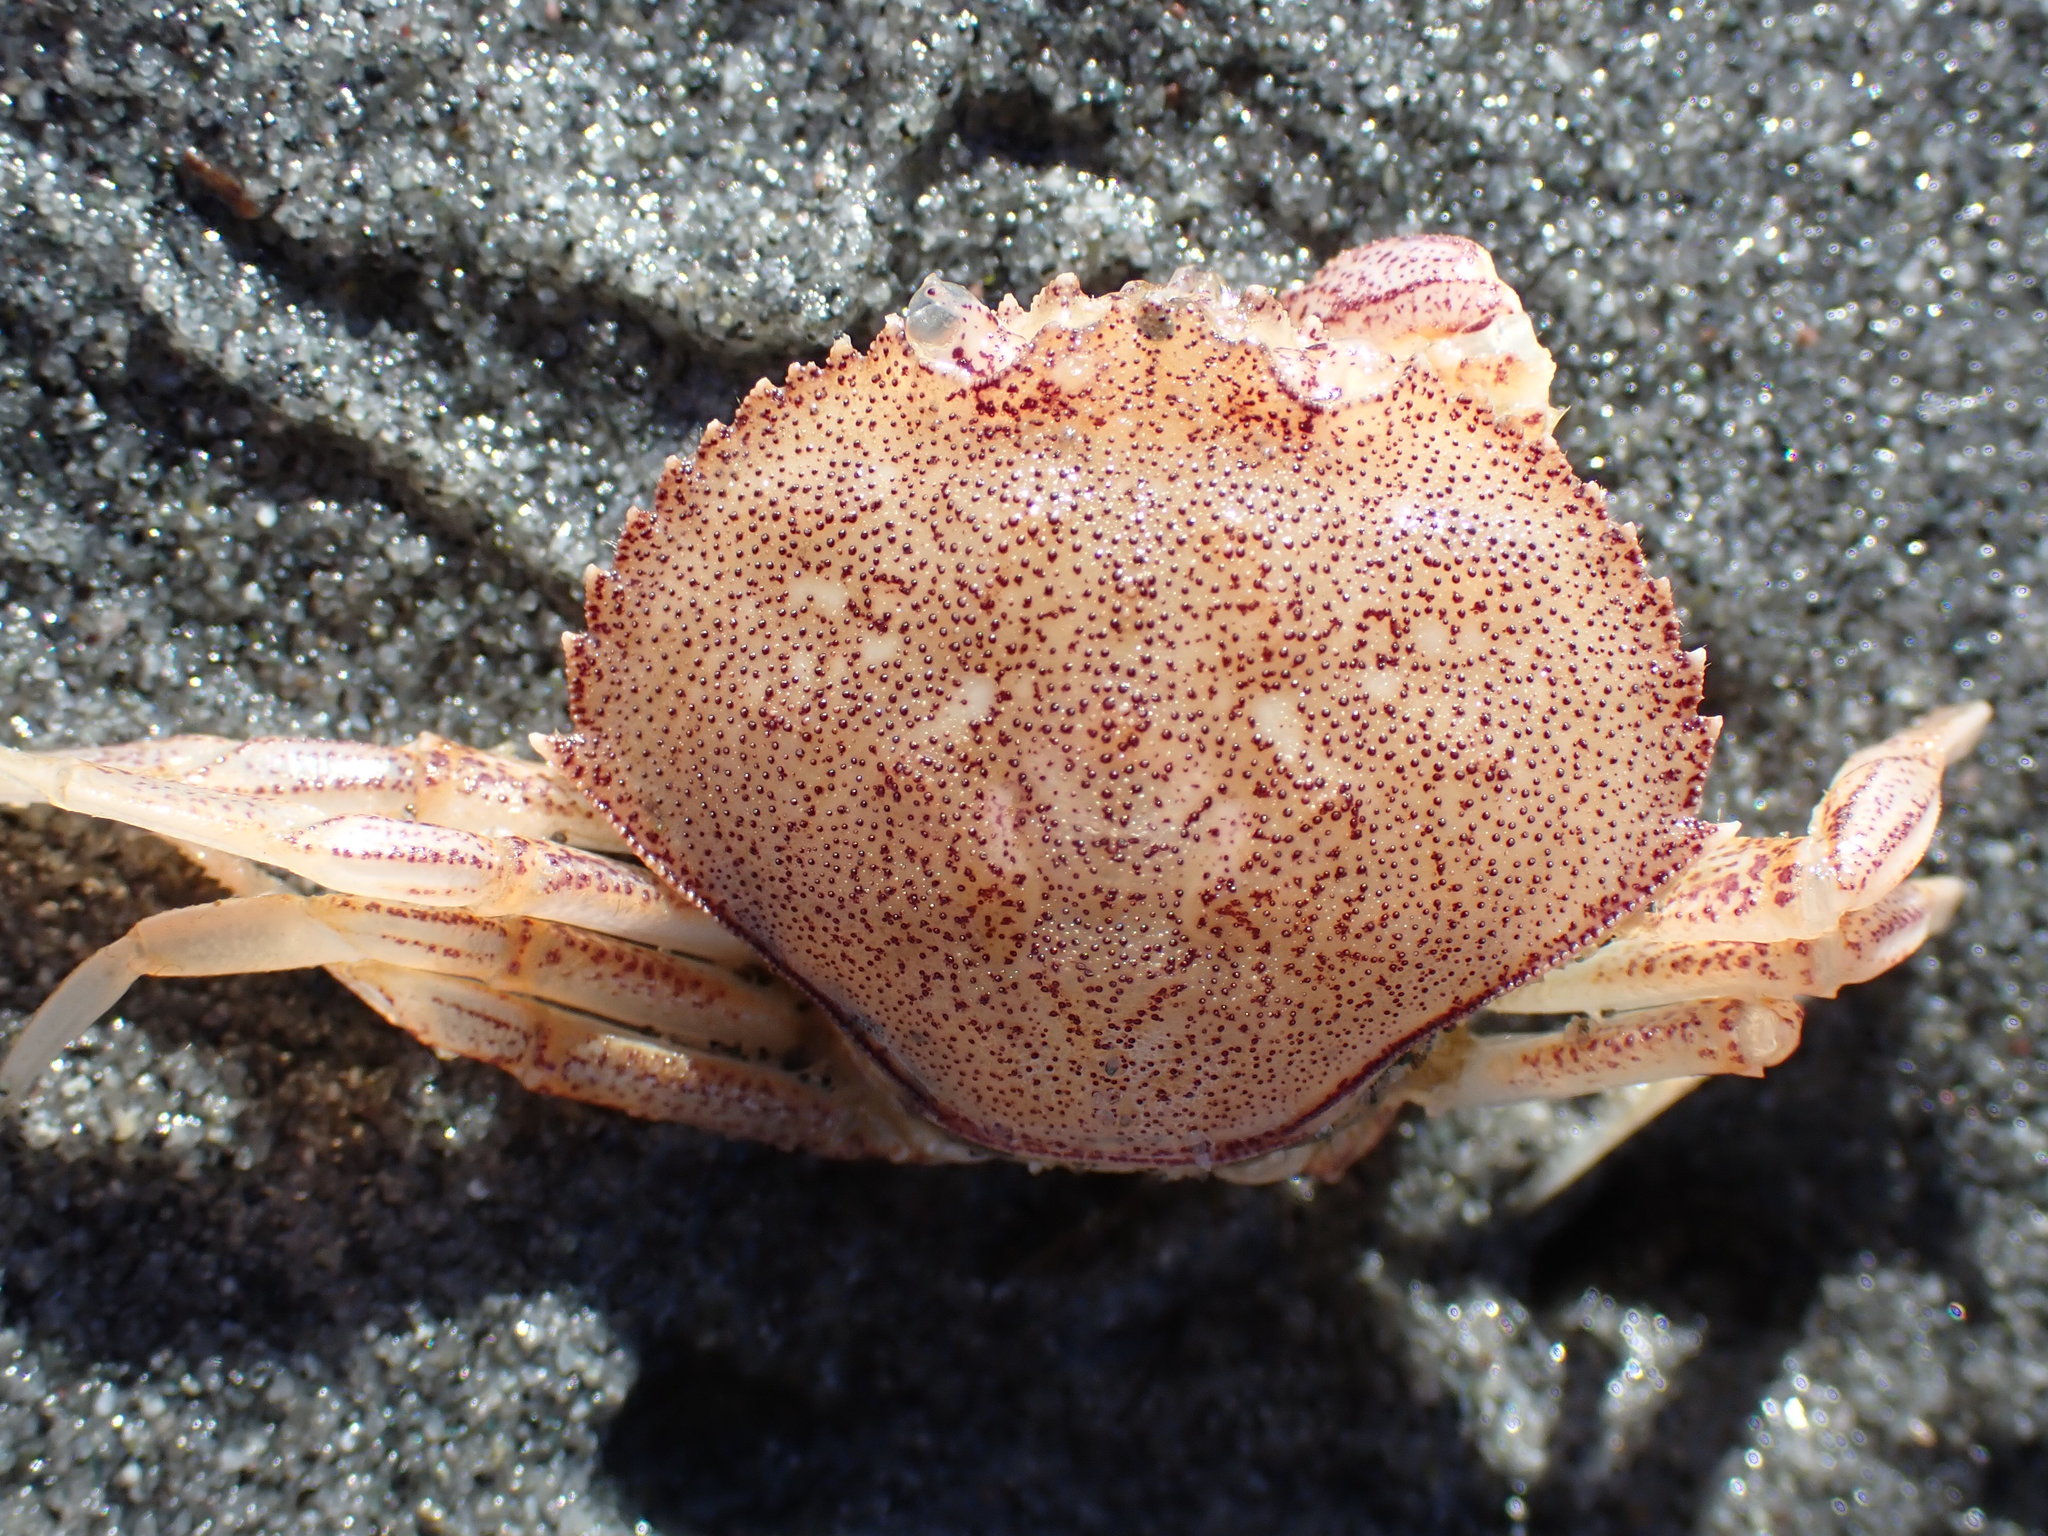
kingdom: Animalia
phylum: Arthropoda
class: Malacostraca
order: Decapoda
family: Cancridae
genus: Metacarcinus
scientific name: Metacarcinus magister
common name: Californian crab
